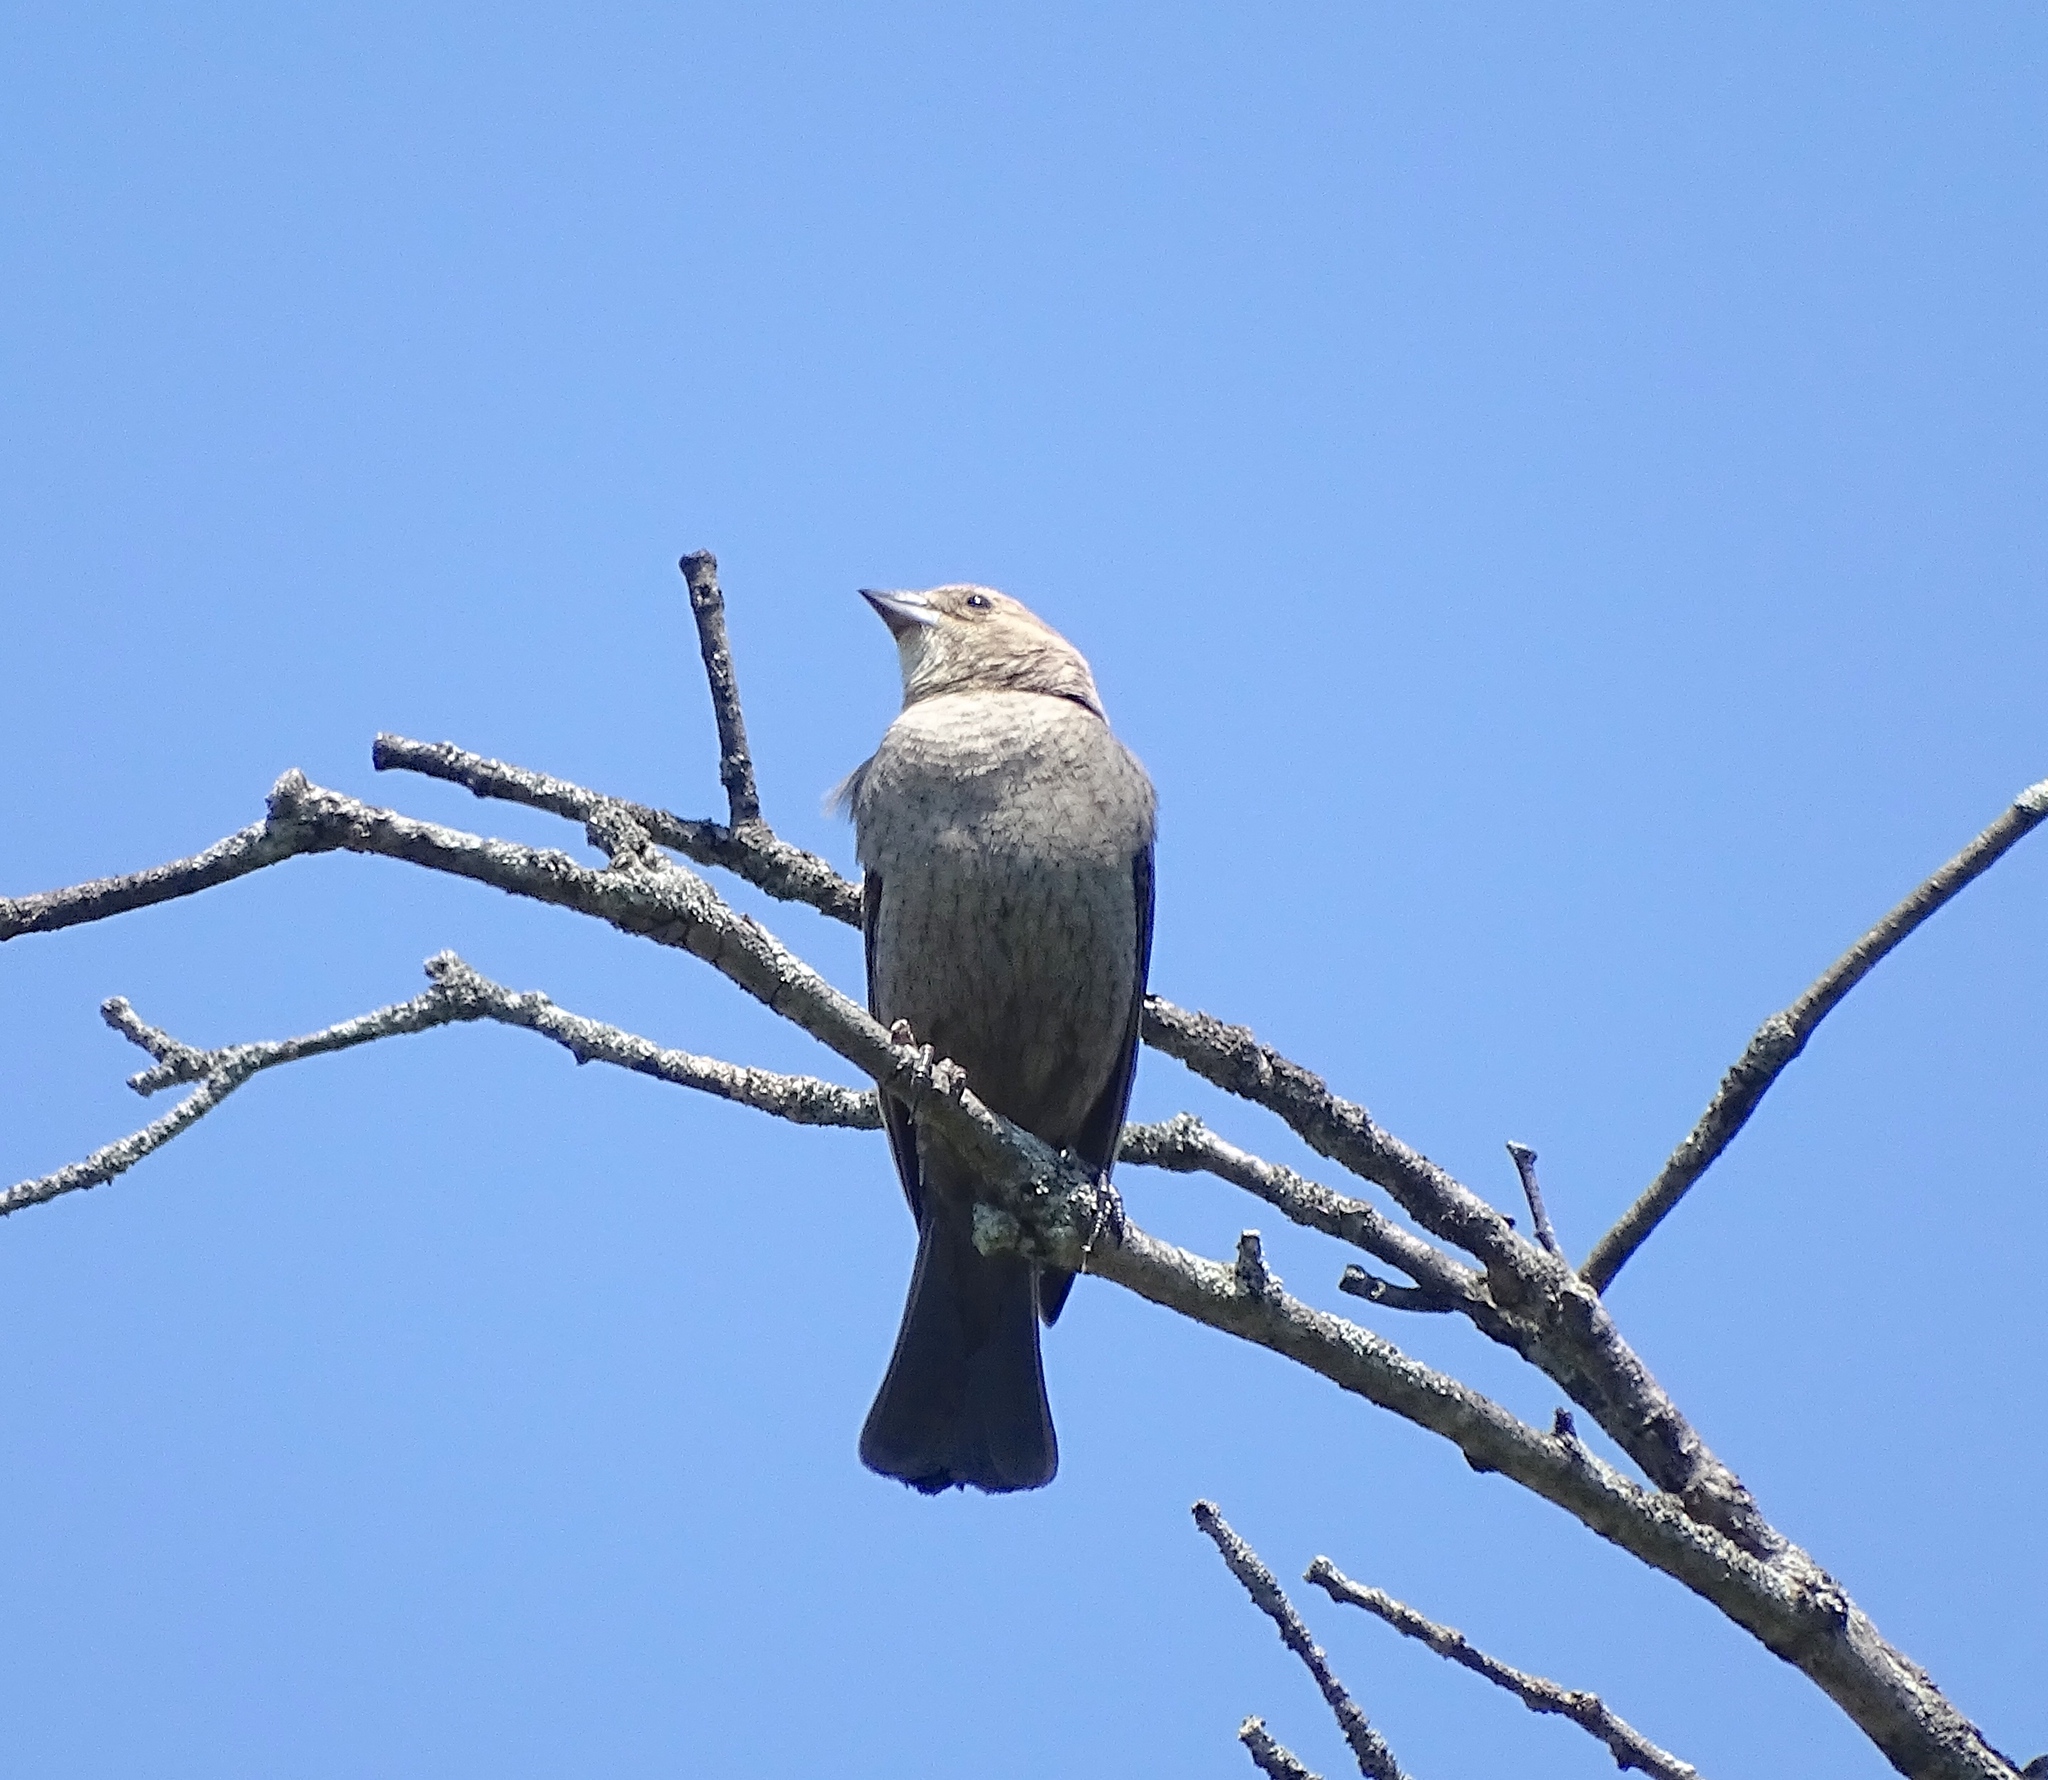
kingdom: Animalia
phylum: Chordata
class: Aves
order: Passeriformes
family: Icteridae
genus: Molothrus
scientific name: Molothrus ater
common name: Brown-headed cowbird
